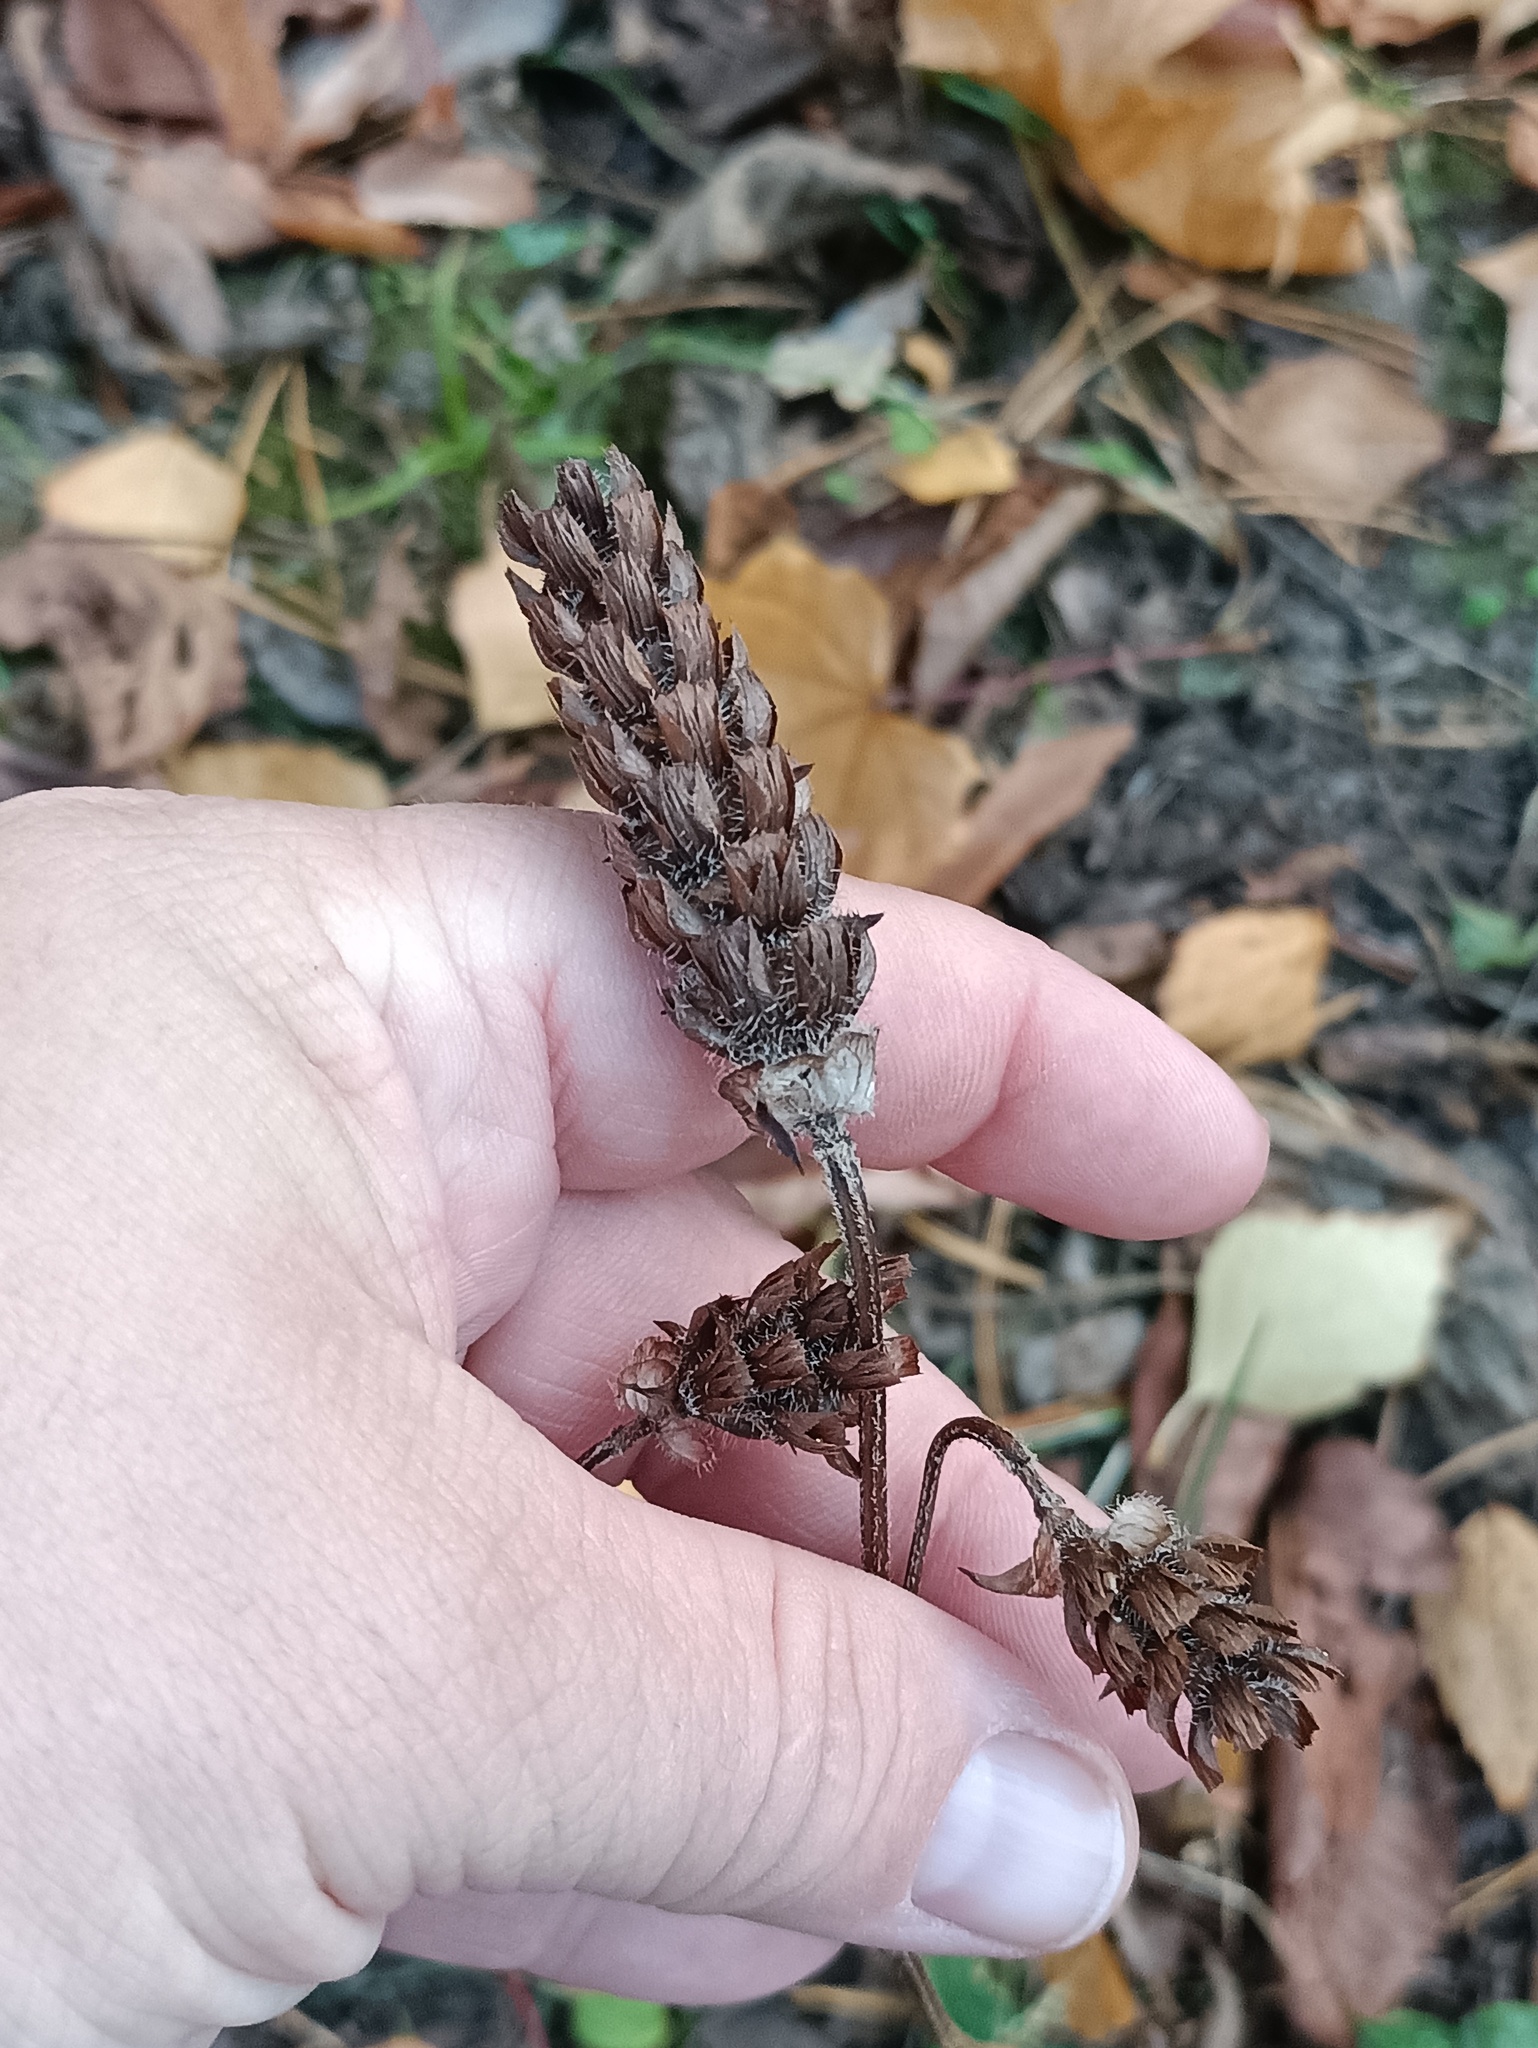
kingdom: Plantae
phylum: Tracheophyta
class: Magnoliopsida
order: Lamiales
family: Lamiaceae
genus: Prunella
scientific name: Prunella vulgaris
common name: Heal-all
